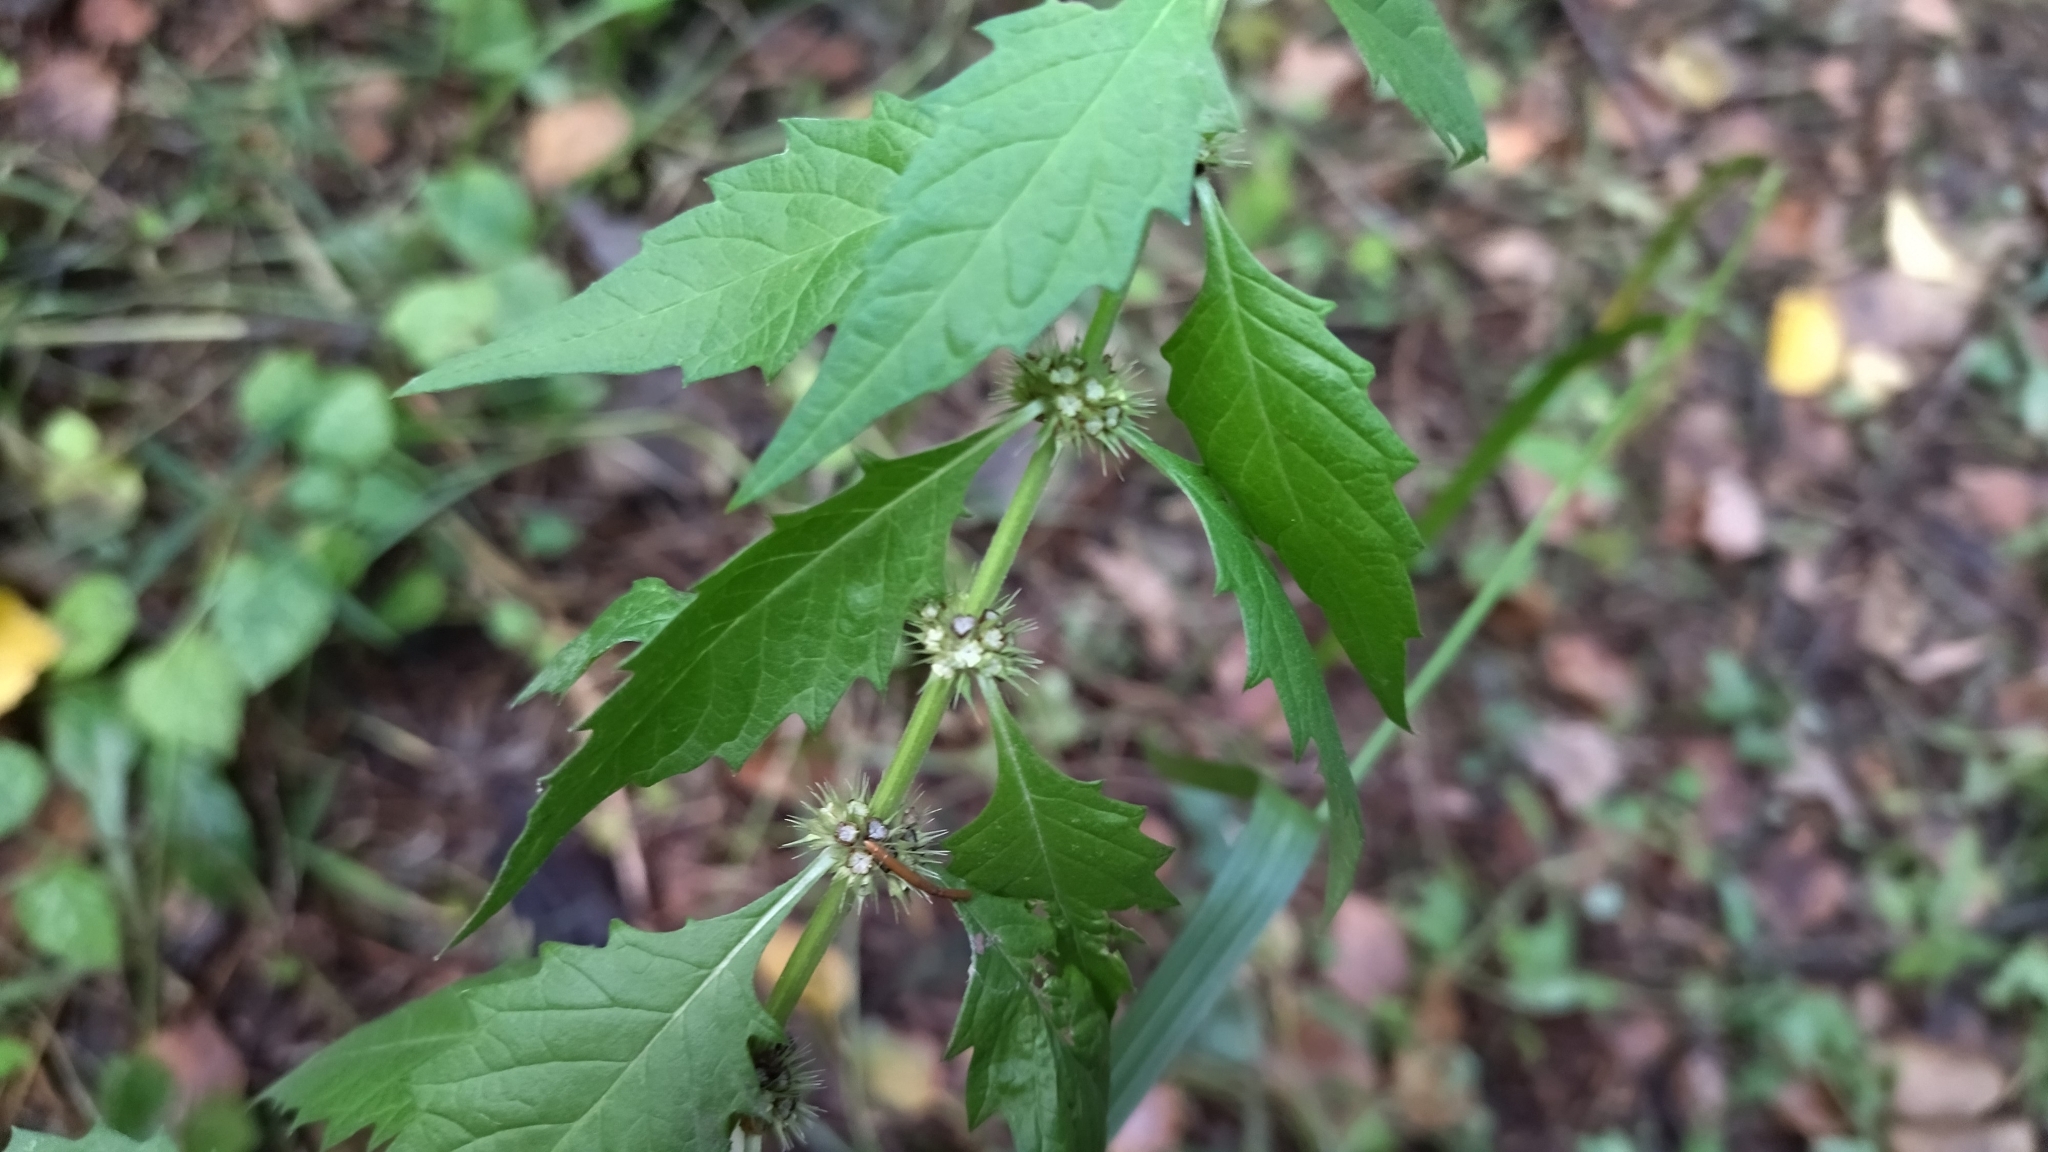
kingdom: Plantae
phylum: Tracheophyta
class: Magnoliopsida
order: Lamiales
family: Lamiaceae
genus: Lycopus
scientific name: Lycopus europaeus
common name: European bugleweed
